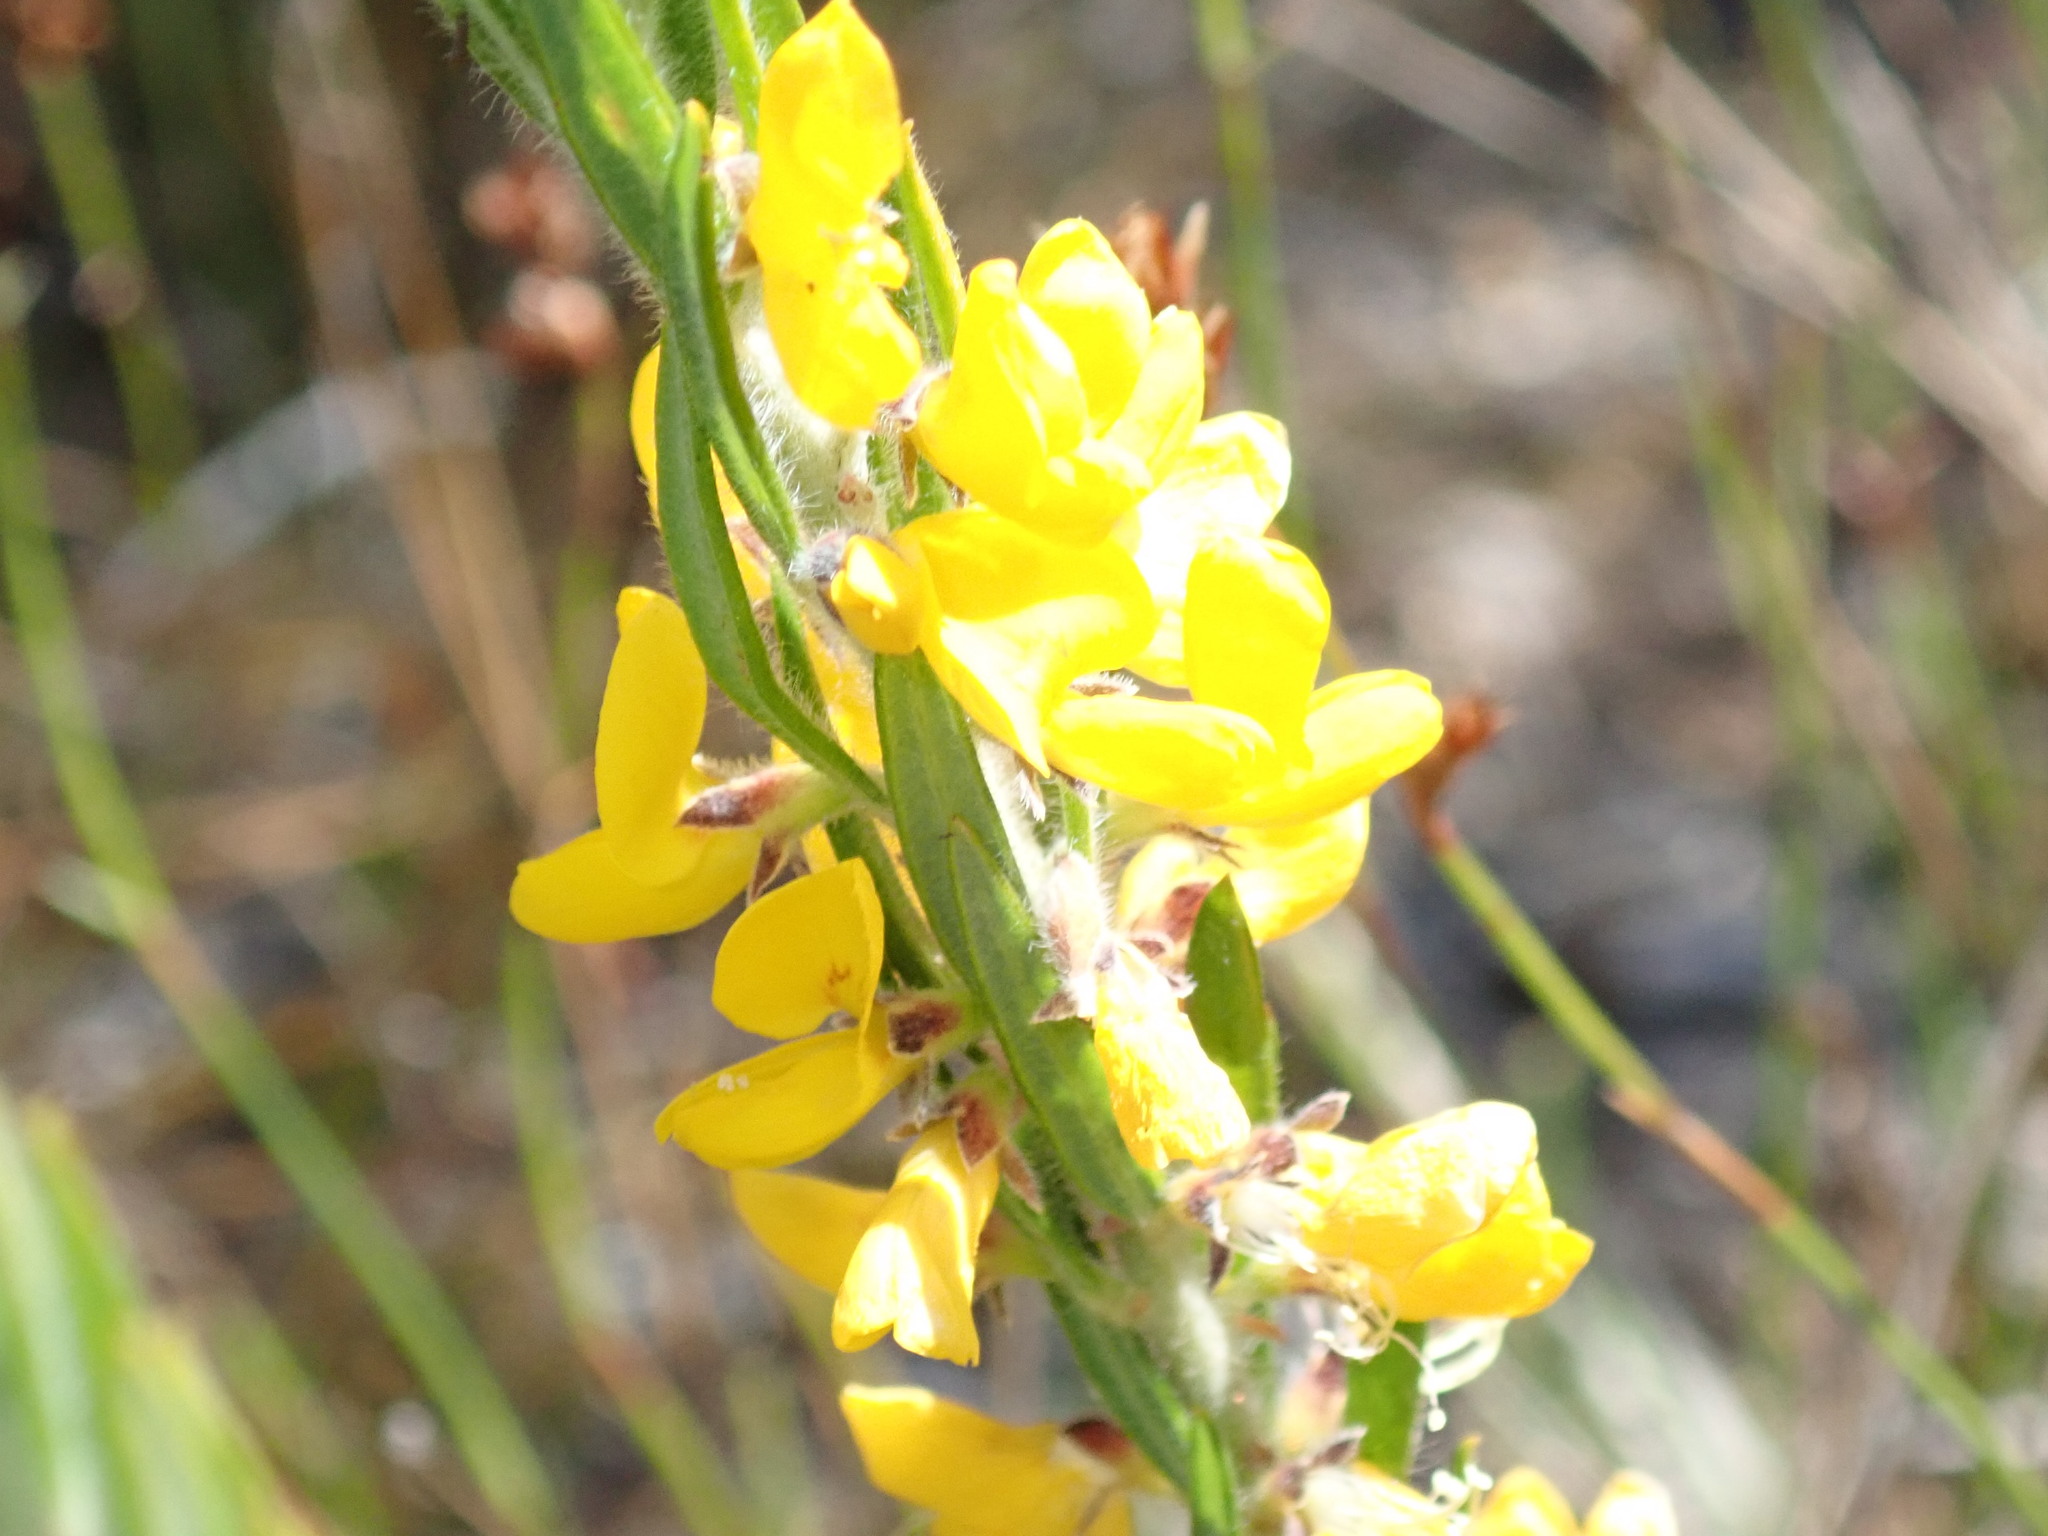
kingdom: Plantae
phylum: Tracheophyta
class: Magnoliopsida
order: Fabales
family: Fabaceae
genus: Phyllota
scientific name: Phyllota phylicoides
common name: Heath phyllota
